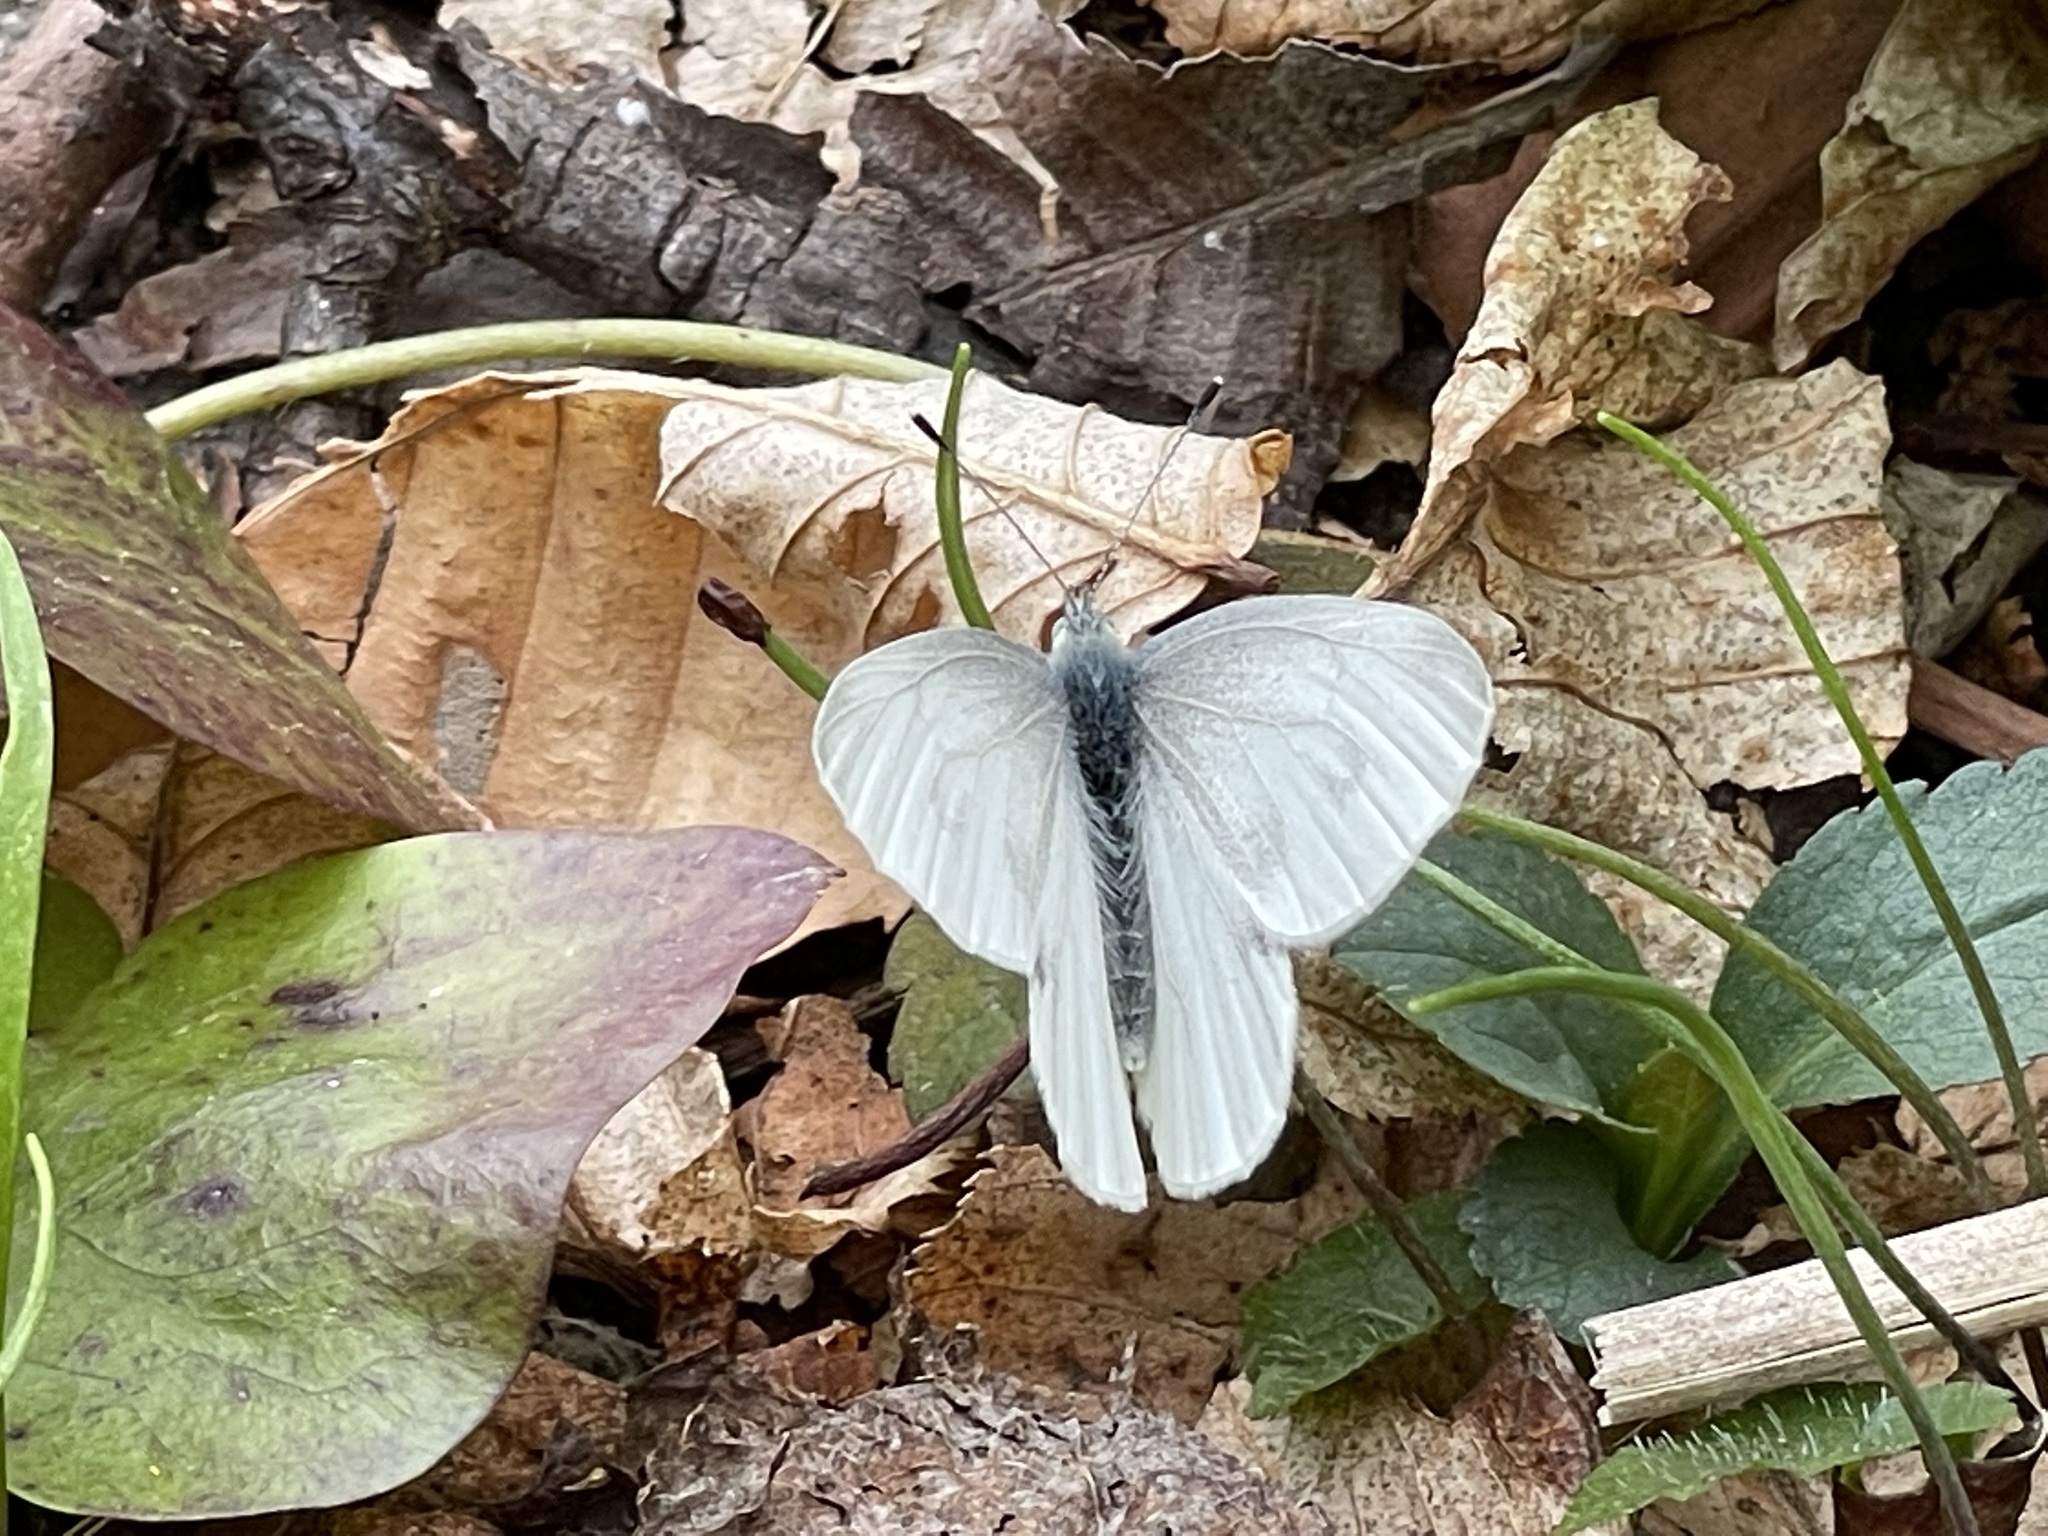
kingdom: Animalia
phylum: Arthropoda
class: Insecta
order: Lepidoptera
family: Pieridae
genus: Pieris
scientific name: Pieris virginiensis
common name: West virginia white
